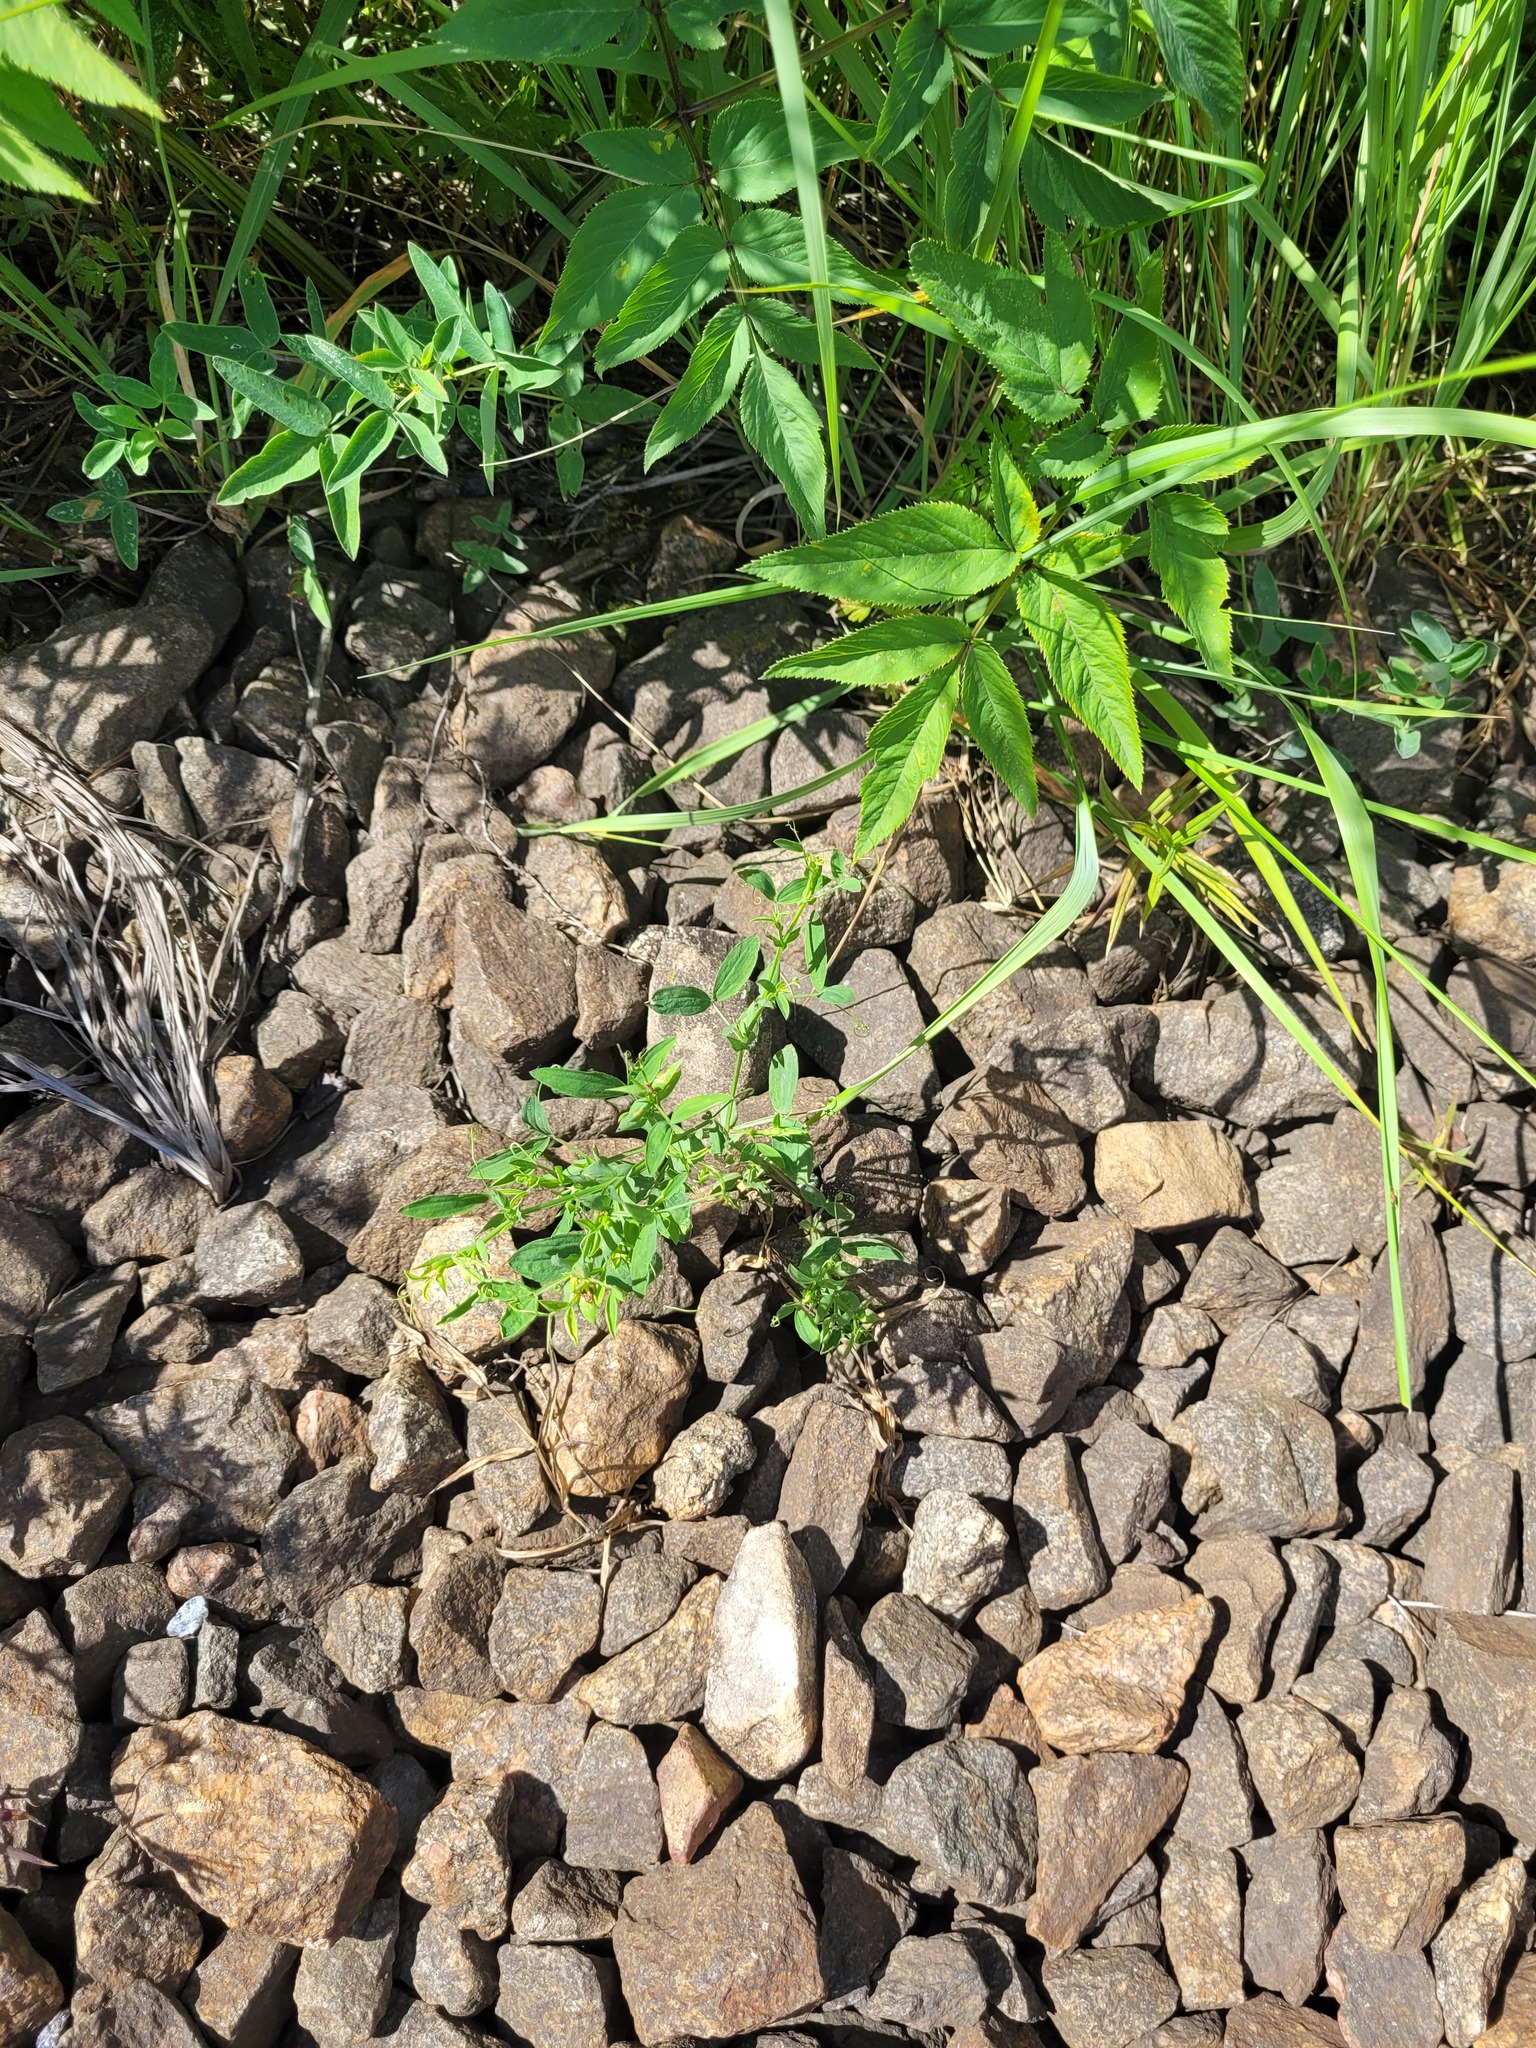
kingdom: Plantae
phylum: Tracheophyta
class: Magnoliopsida
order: Fabales
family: Fabaceae
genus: Lathyrus
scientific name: Lathyrus pratensis
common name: Meadow vetchling
